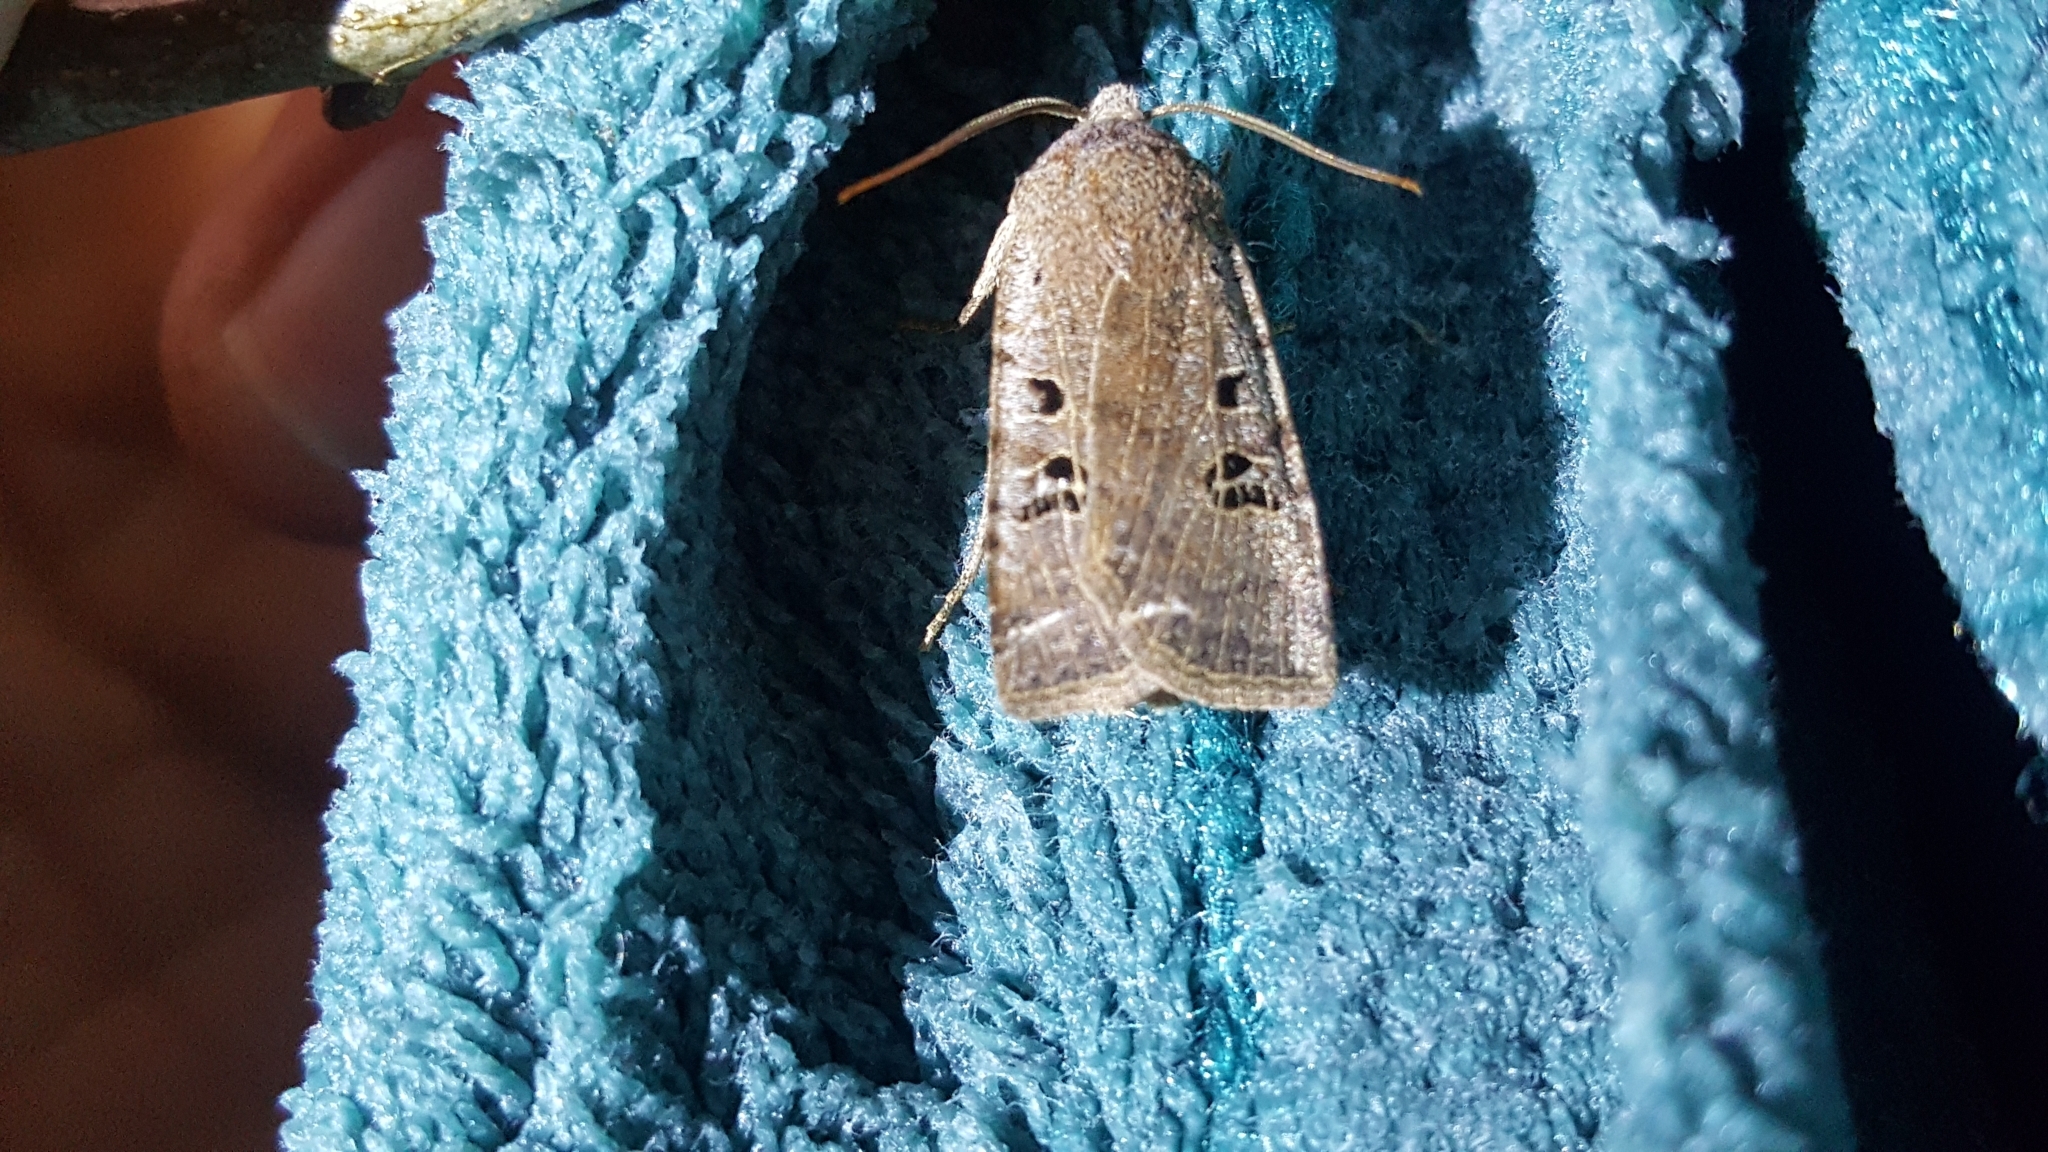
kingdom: Animalia
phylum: Arthropoda
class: Insecta
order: Lepidoptera
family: Noctuidae
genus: Conistra
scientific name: Conistra rubiginosa
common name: Black-spotted chestnut
